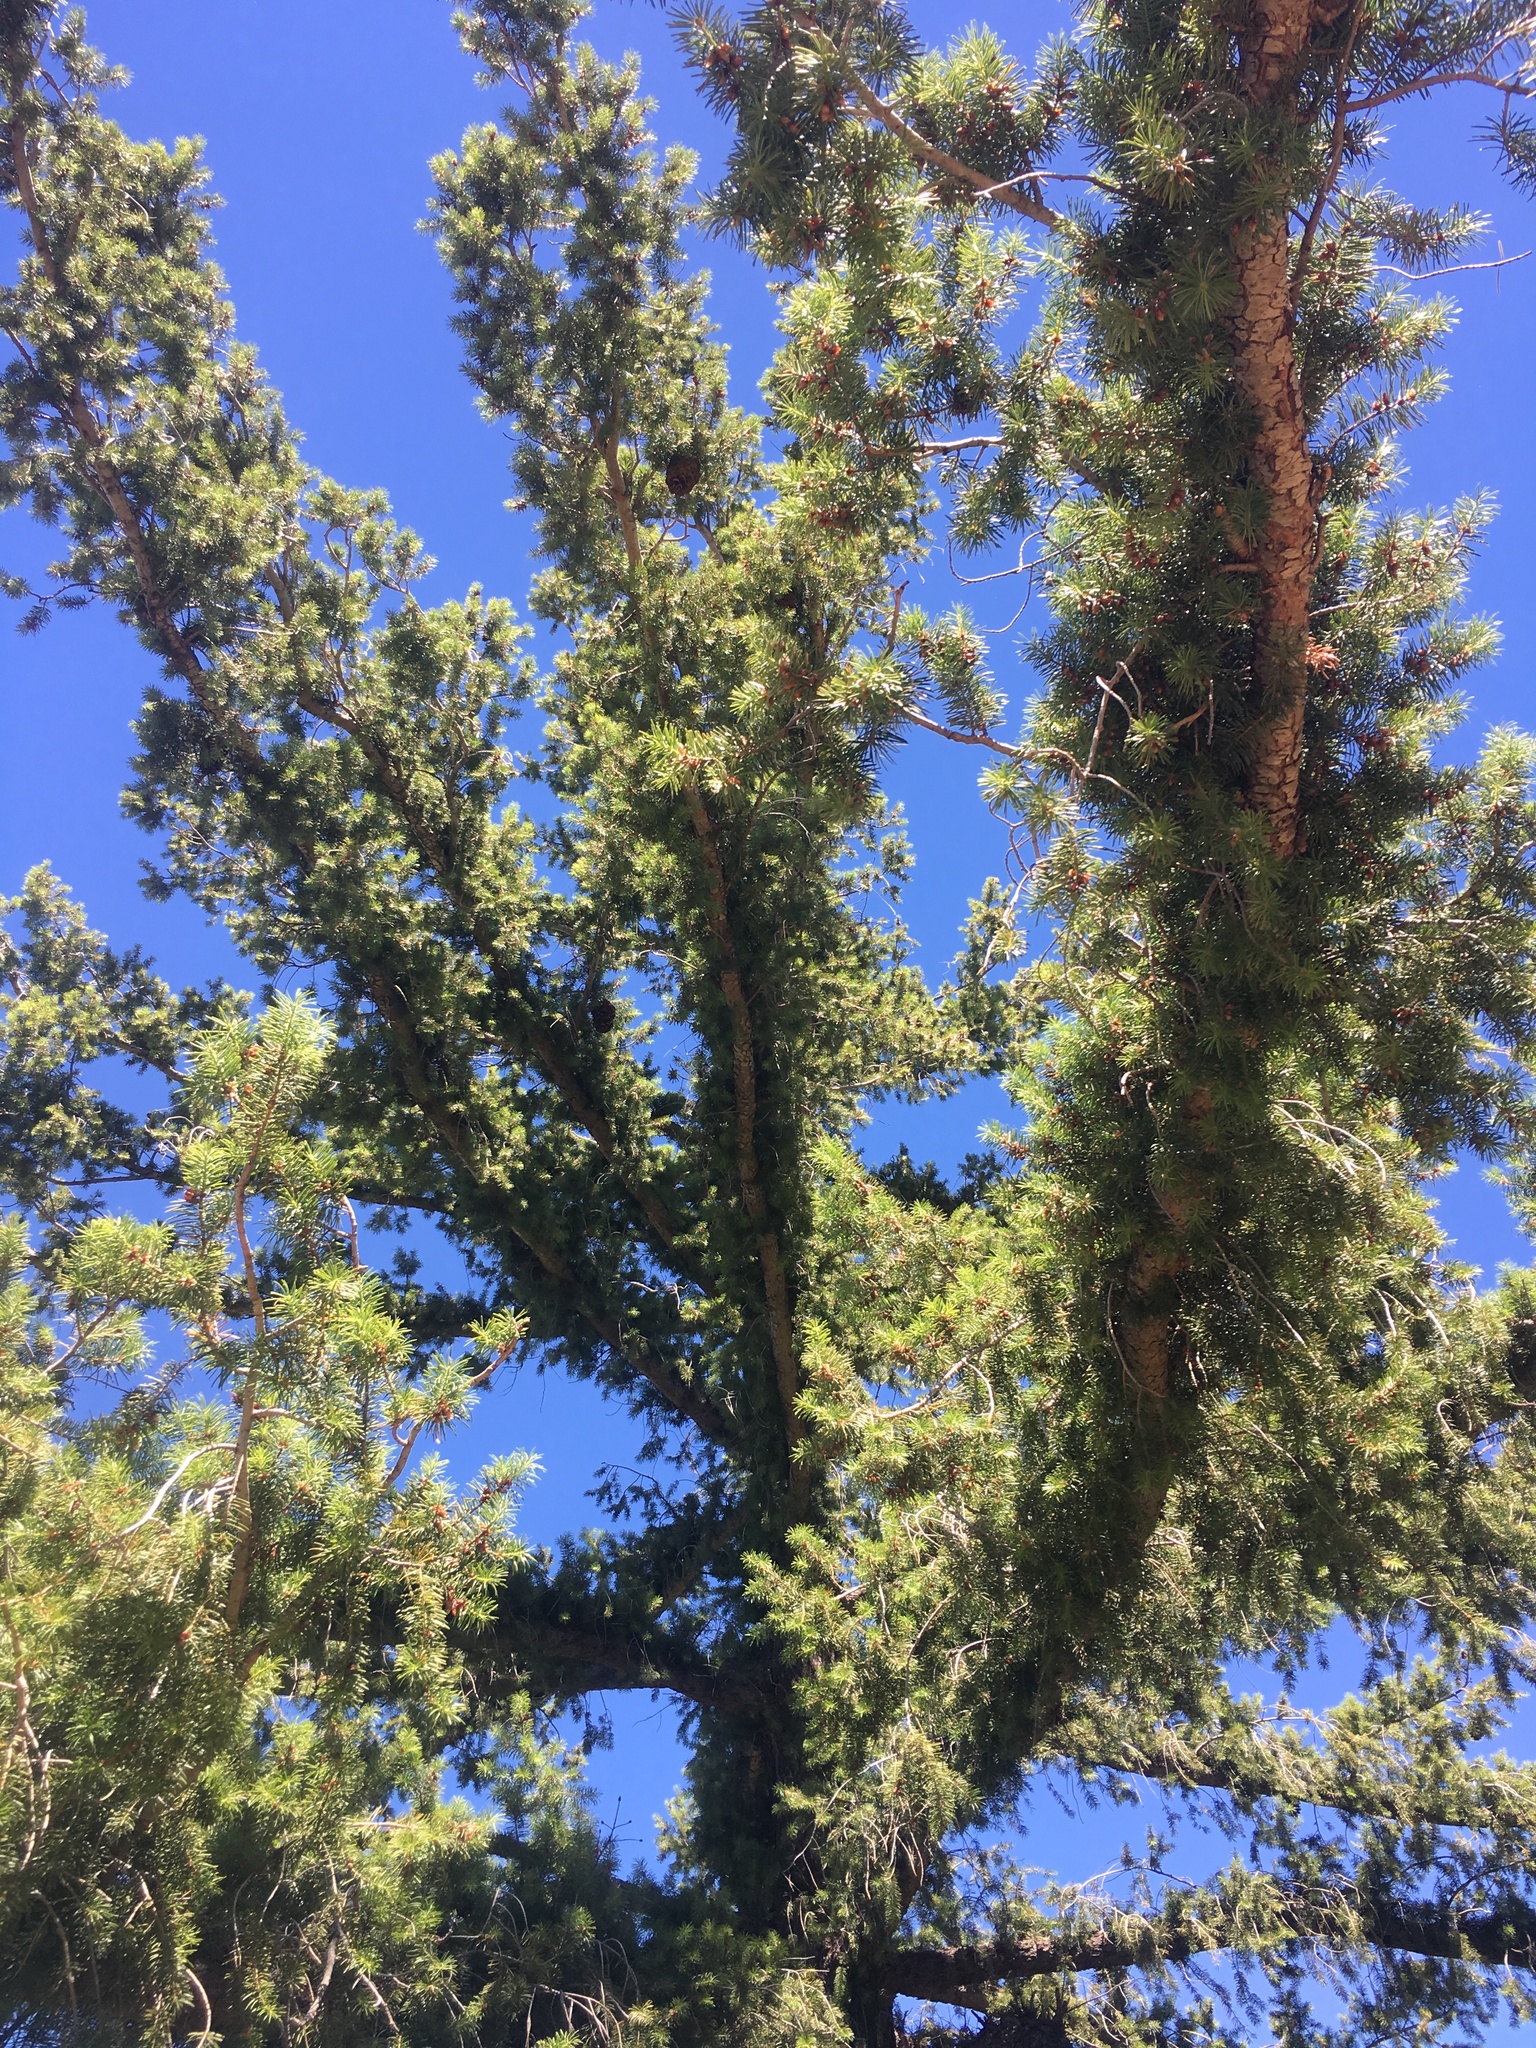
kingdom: Plantae
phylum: Tracheophyta
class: Pinopsida
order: Pinales
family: Pinaceae
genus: Pseudotsuga
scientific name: Pseudotsuga macrocarpa
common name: Big-cone douglas-fir
